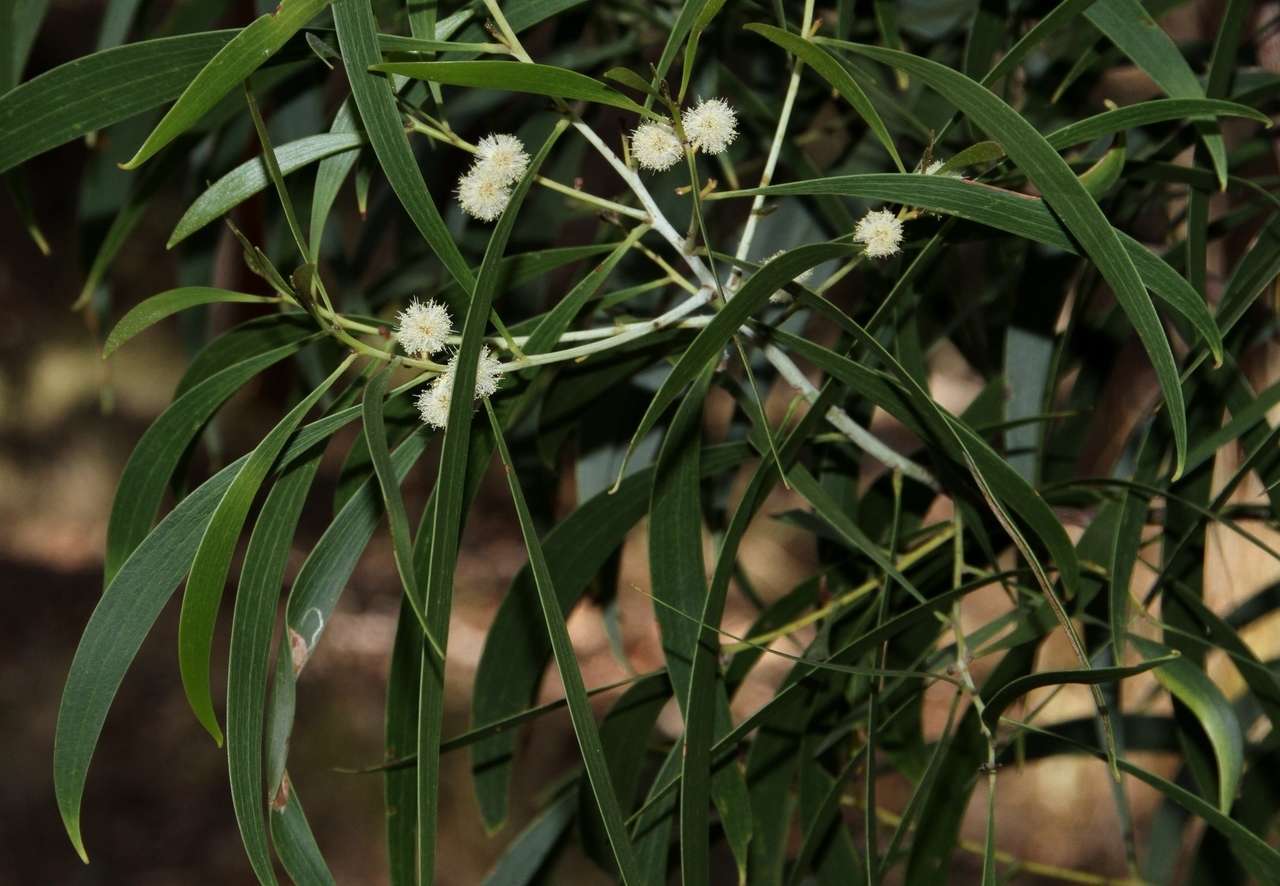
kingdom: Plantae
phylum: Tracheophyta
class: Magnoliopsida
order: Fabales
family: Fabaceae
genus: Acacia
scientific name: Acacia implexa
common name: Black wattle
